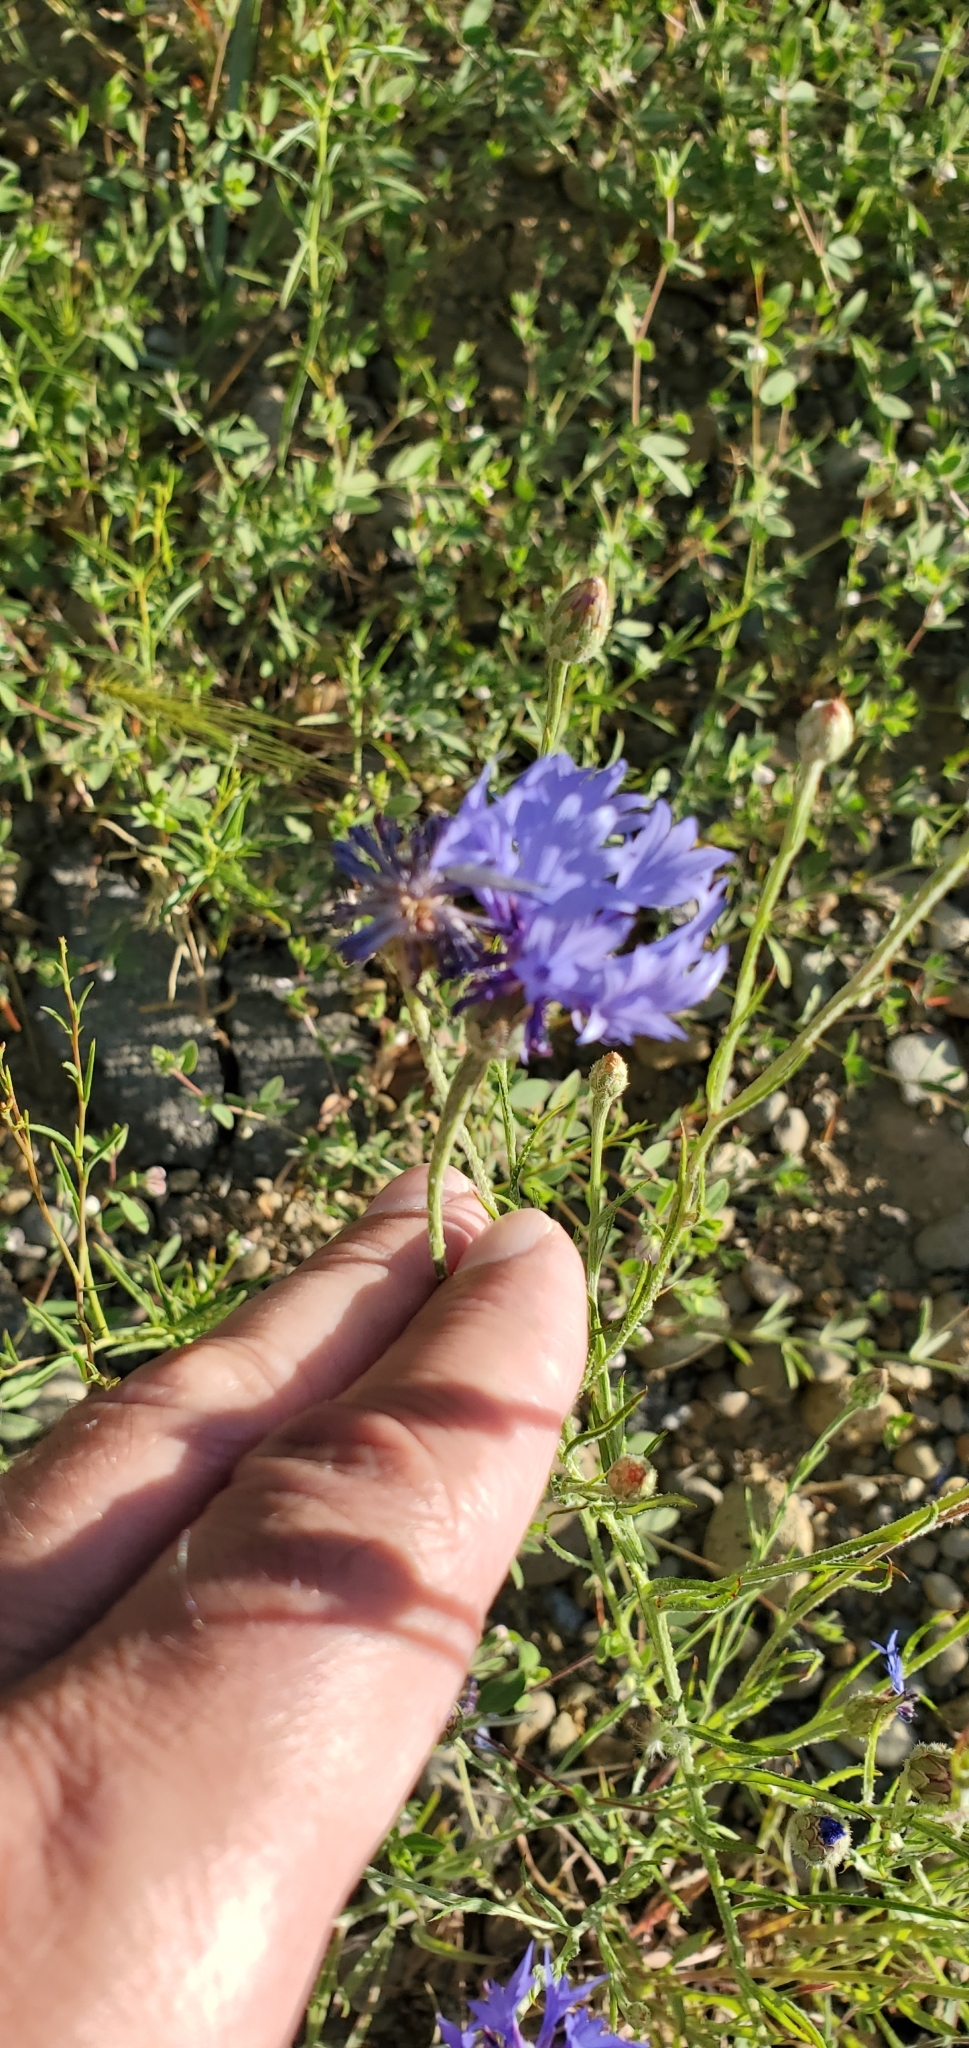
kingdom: Plantae
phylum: Tracheophyta
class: Magnoliopsida
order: Asterales
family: Asteraceae
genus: Centaurea
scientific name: Centaurea cyanus
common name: Cornflower
